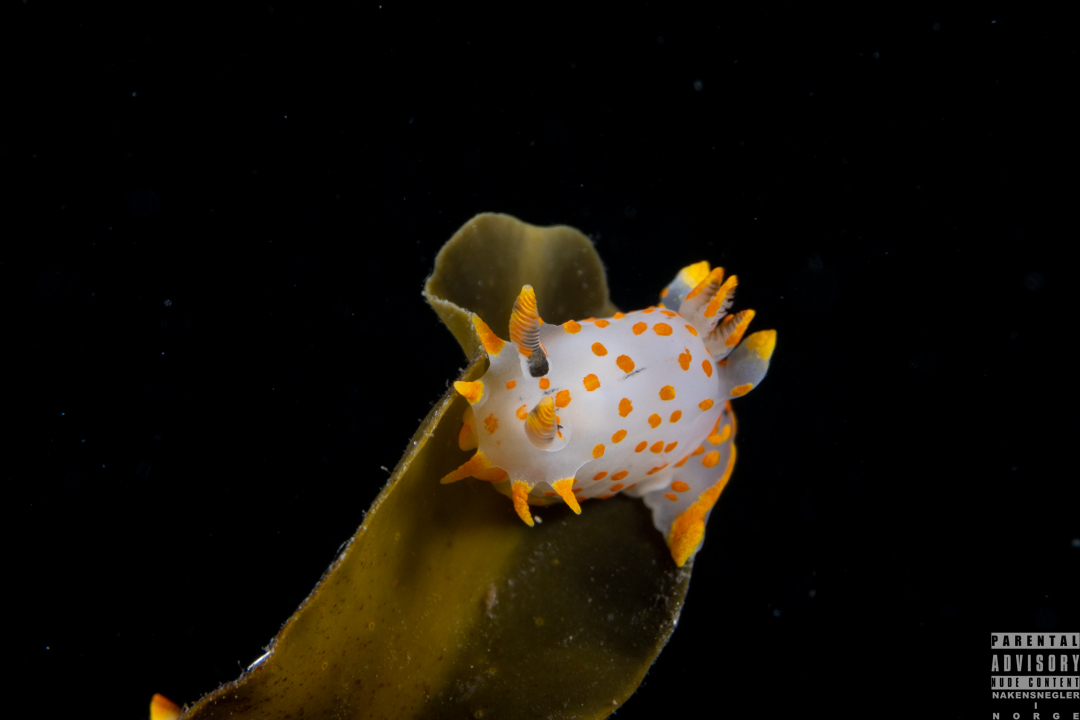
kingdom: Animalia
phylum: Mollusca
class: Gastropoda
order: Nudibranchia
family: Polyceridae
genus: Polycera
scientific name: Polycera quadrilineata
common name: Four-striped polycera
